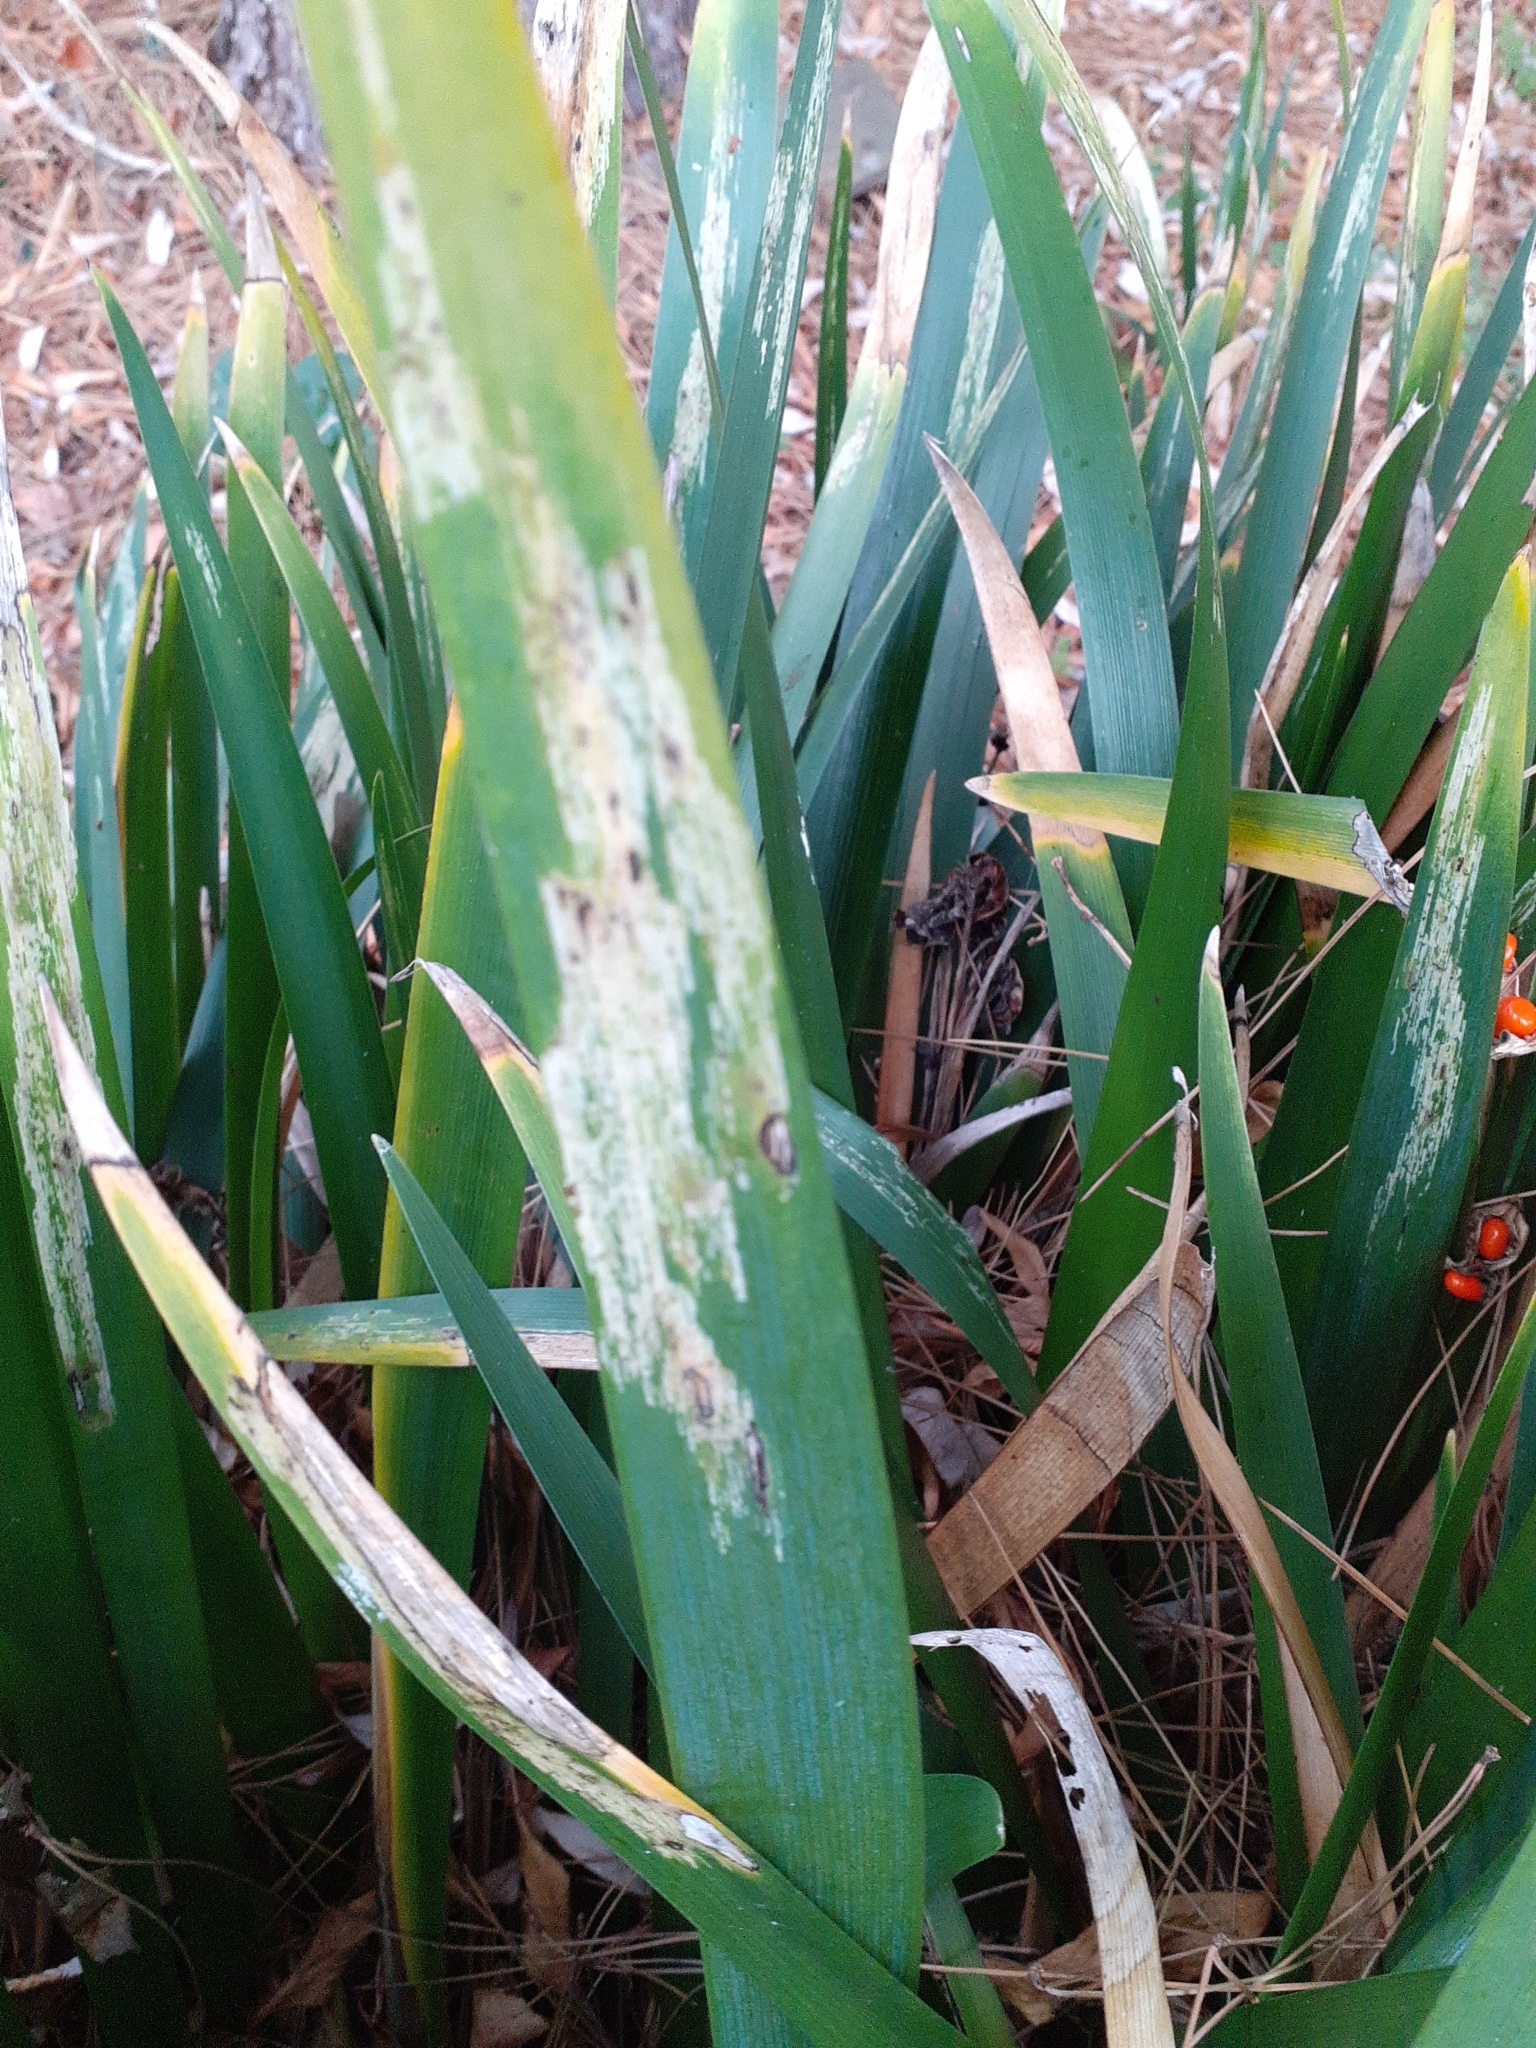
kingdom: Animalia
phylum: Arthropoda
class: Insecta
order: Diptera
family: Agromyzidae
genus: Phytobia
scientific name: Phytobia iridis
